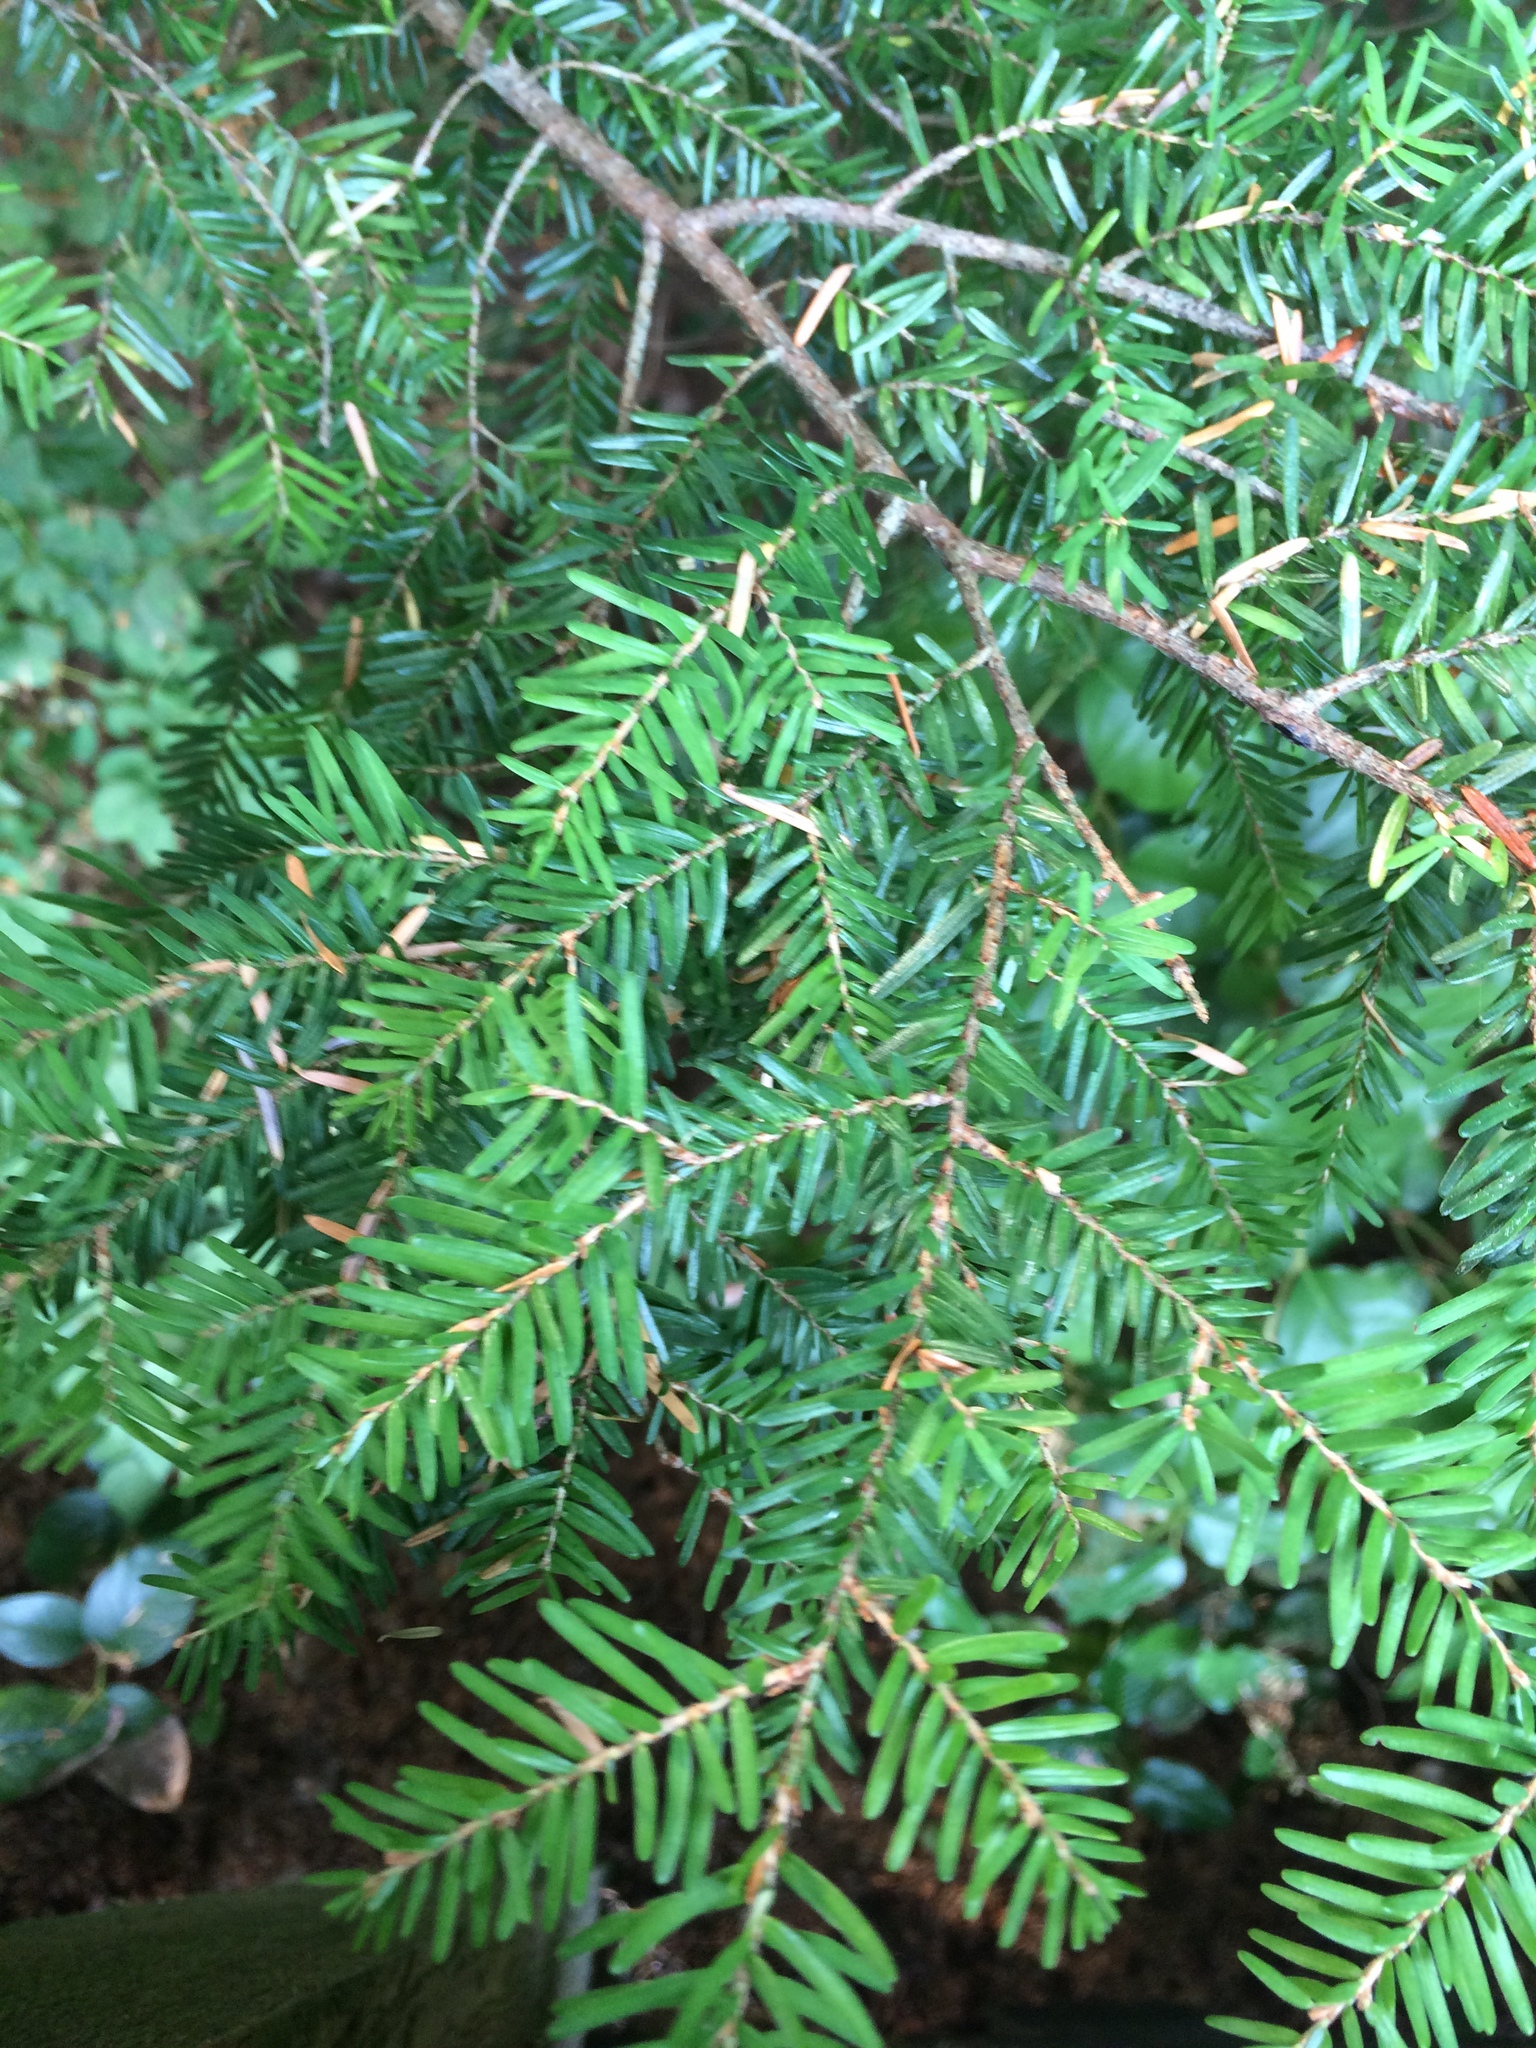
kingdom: Plantae
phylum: Tracheophyta
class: Pinopsida
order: Pinales
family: Pinaceae
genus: Tsuga
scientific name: Tsuga heterophylla
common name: Western hemlock
